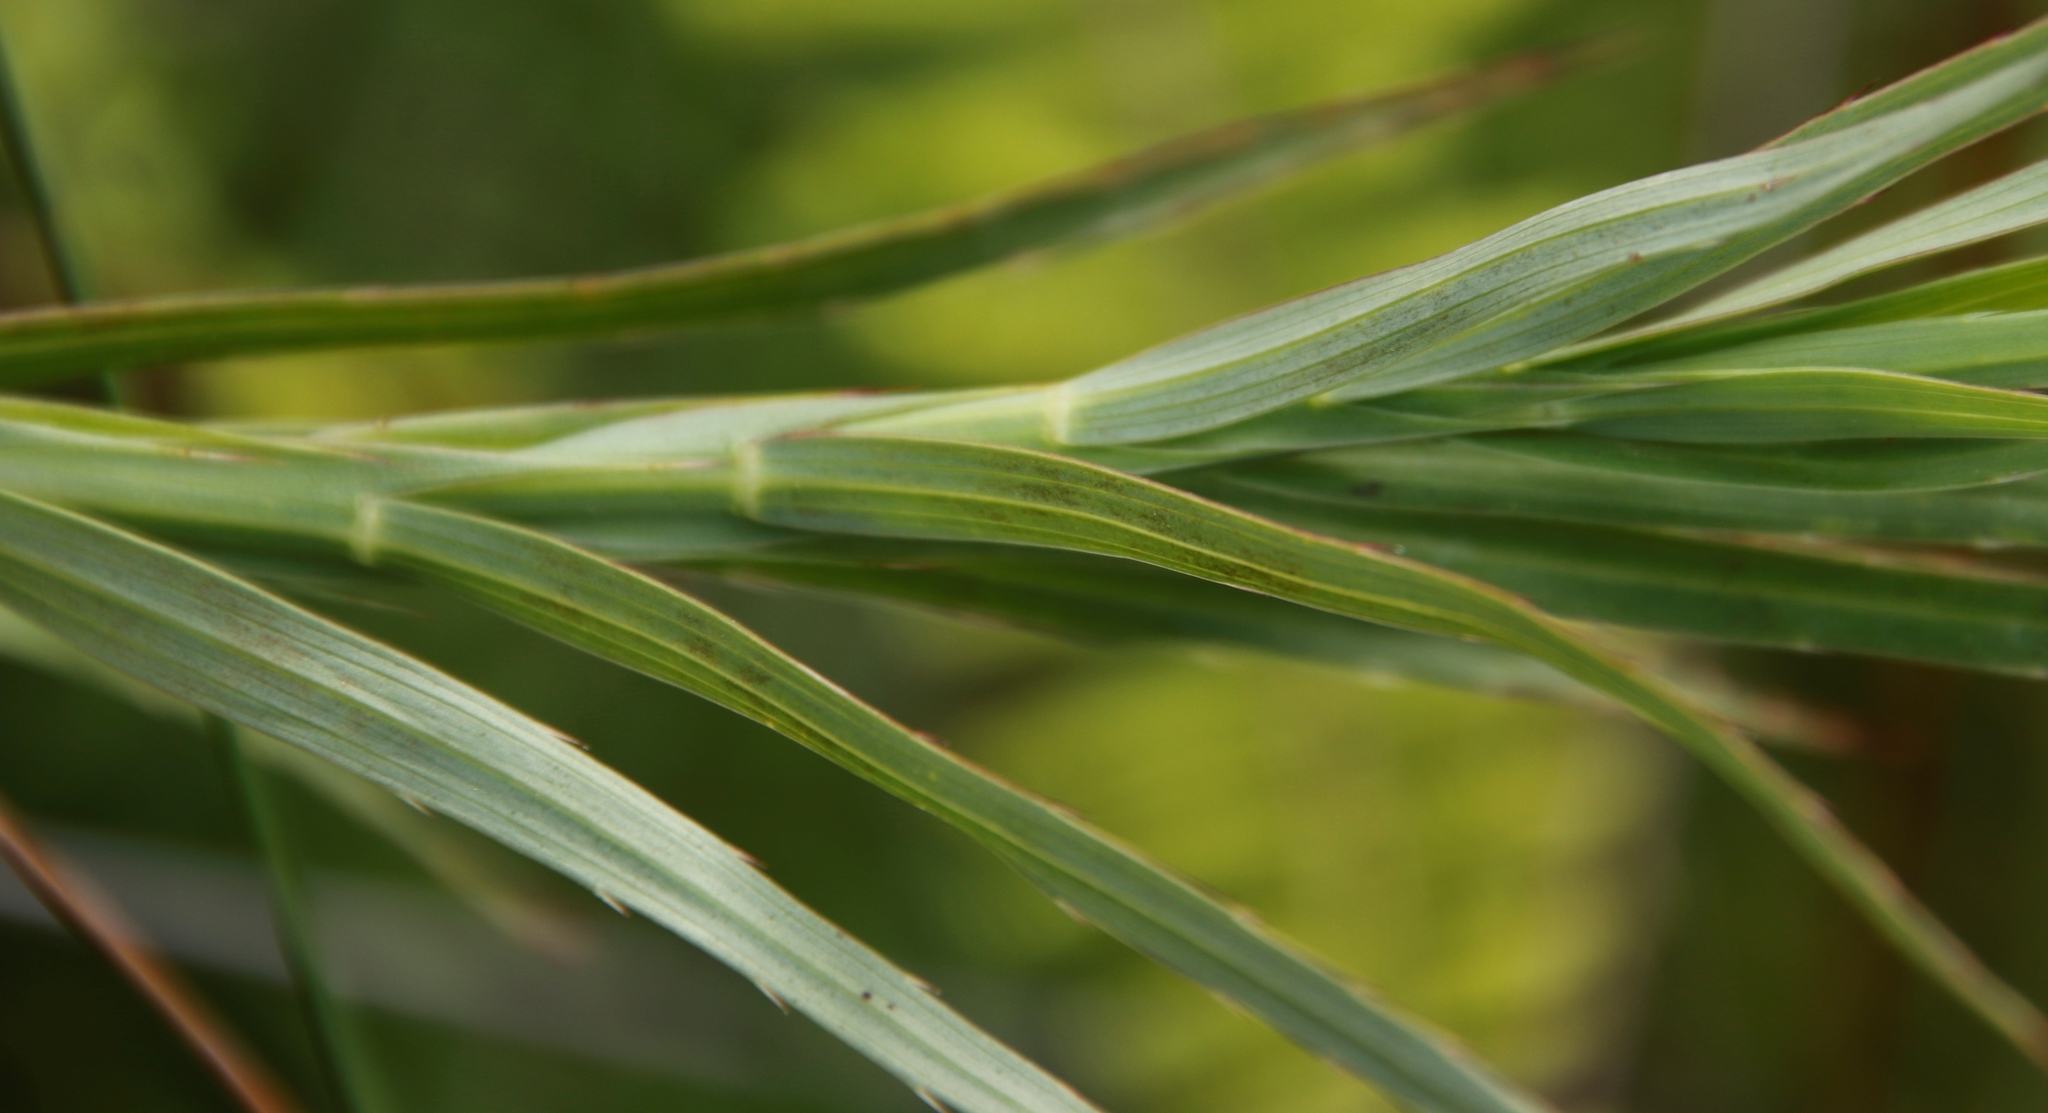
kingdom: Plantae
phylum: Tracheophyta
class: Magnoliopsida
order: Rosales
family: Rosaceae
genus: Cliffortia
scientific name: Cliffortia graminea
